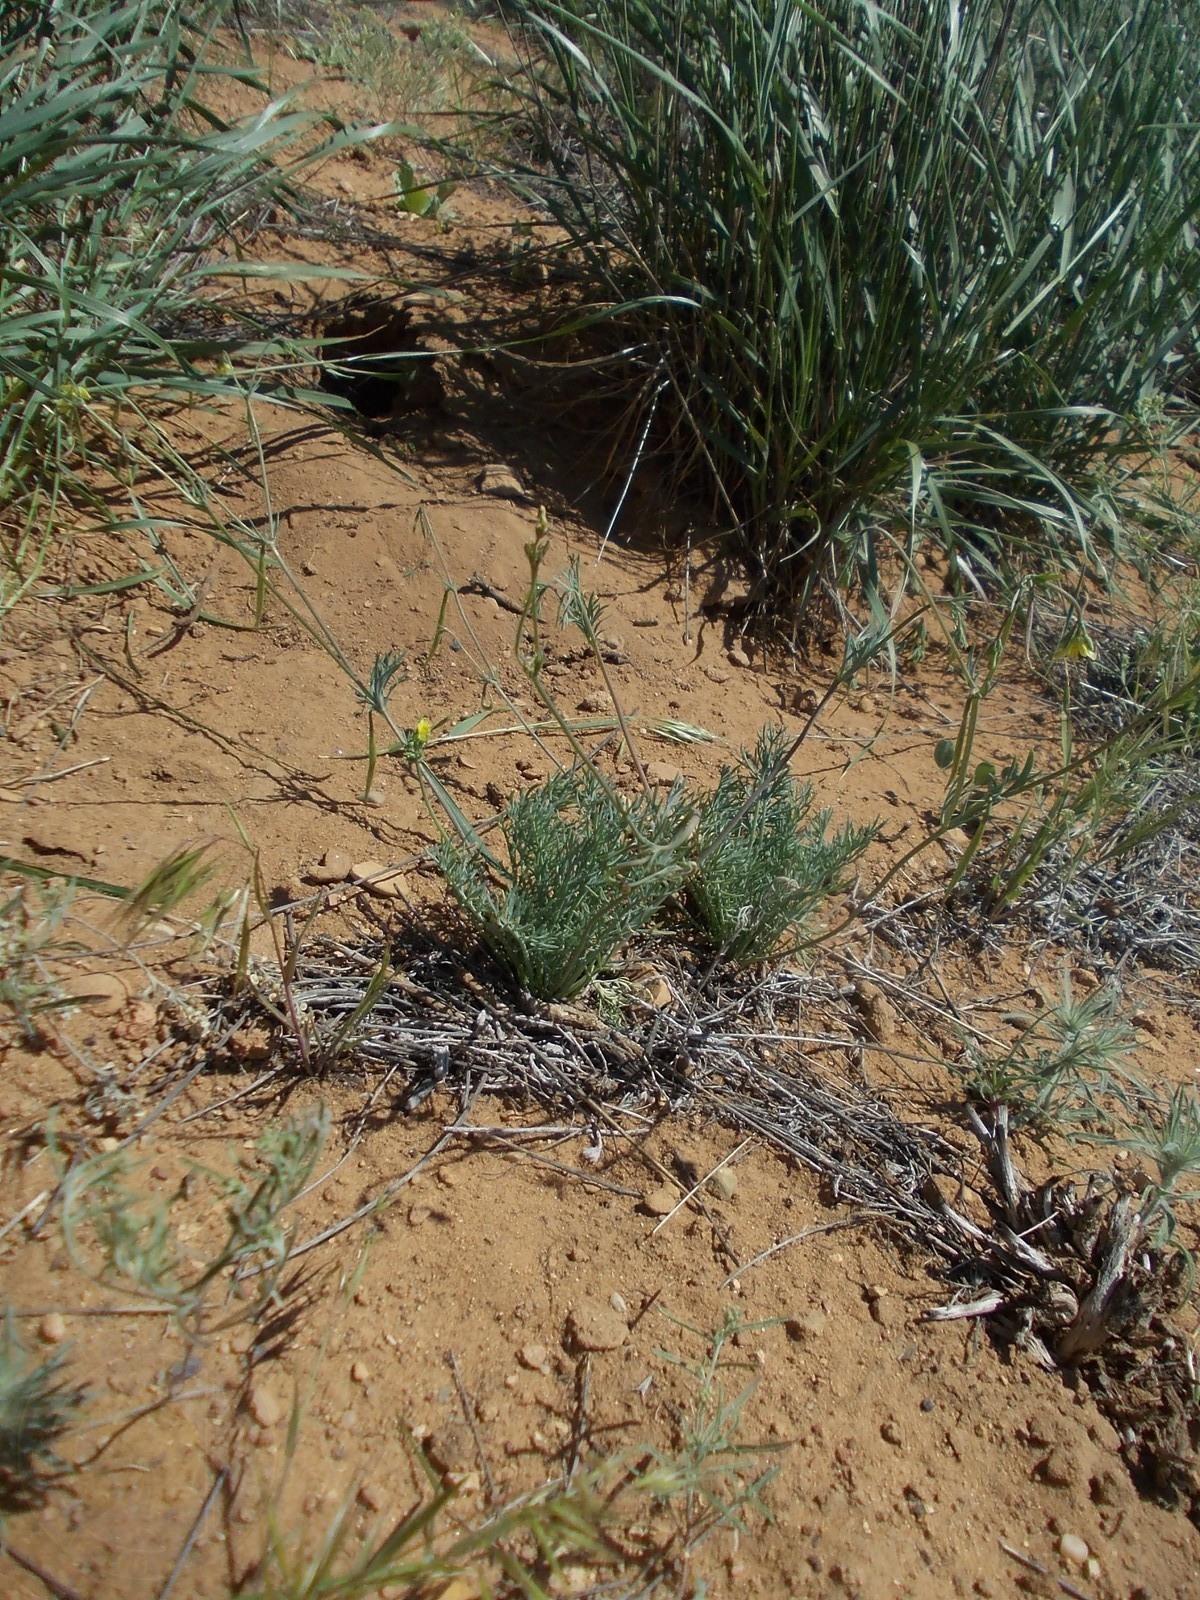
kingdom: Plantae
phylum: Tracheophyta
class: Magnoliopsida
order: Ranunculales
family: Papaveraceae
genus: Hypecoum
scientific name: Hypecoum pendulum
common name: Nodding hypecoum
